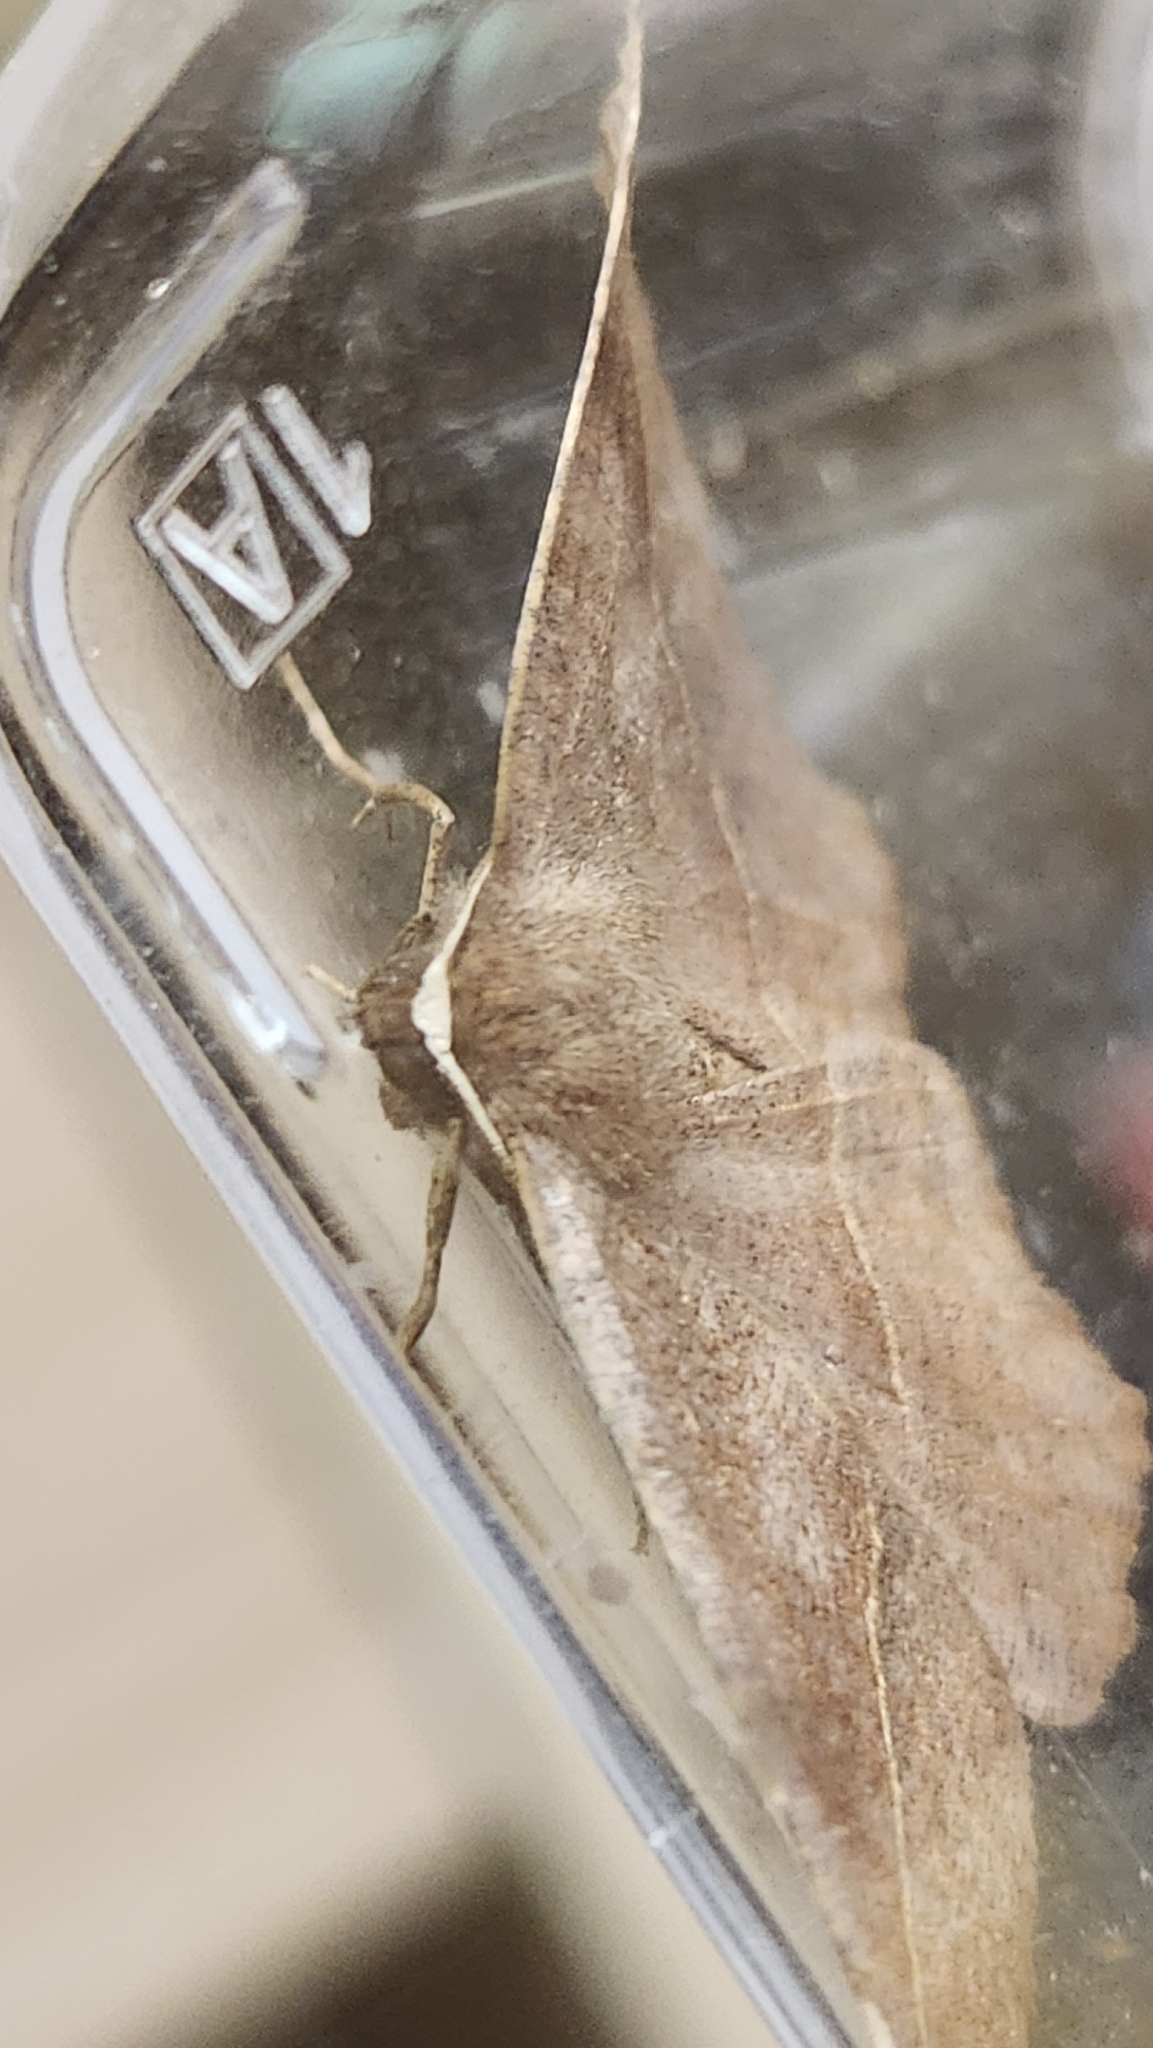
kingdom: Animalia
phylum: Arthropoda
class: Insecta
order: Lepidoptera
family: Geometridae
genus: Eutrapela
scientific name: Eutrapela clemataria
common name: Curved-toothed geometer
